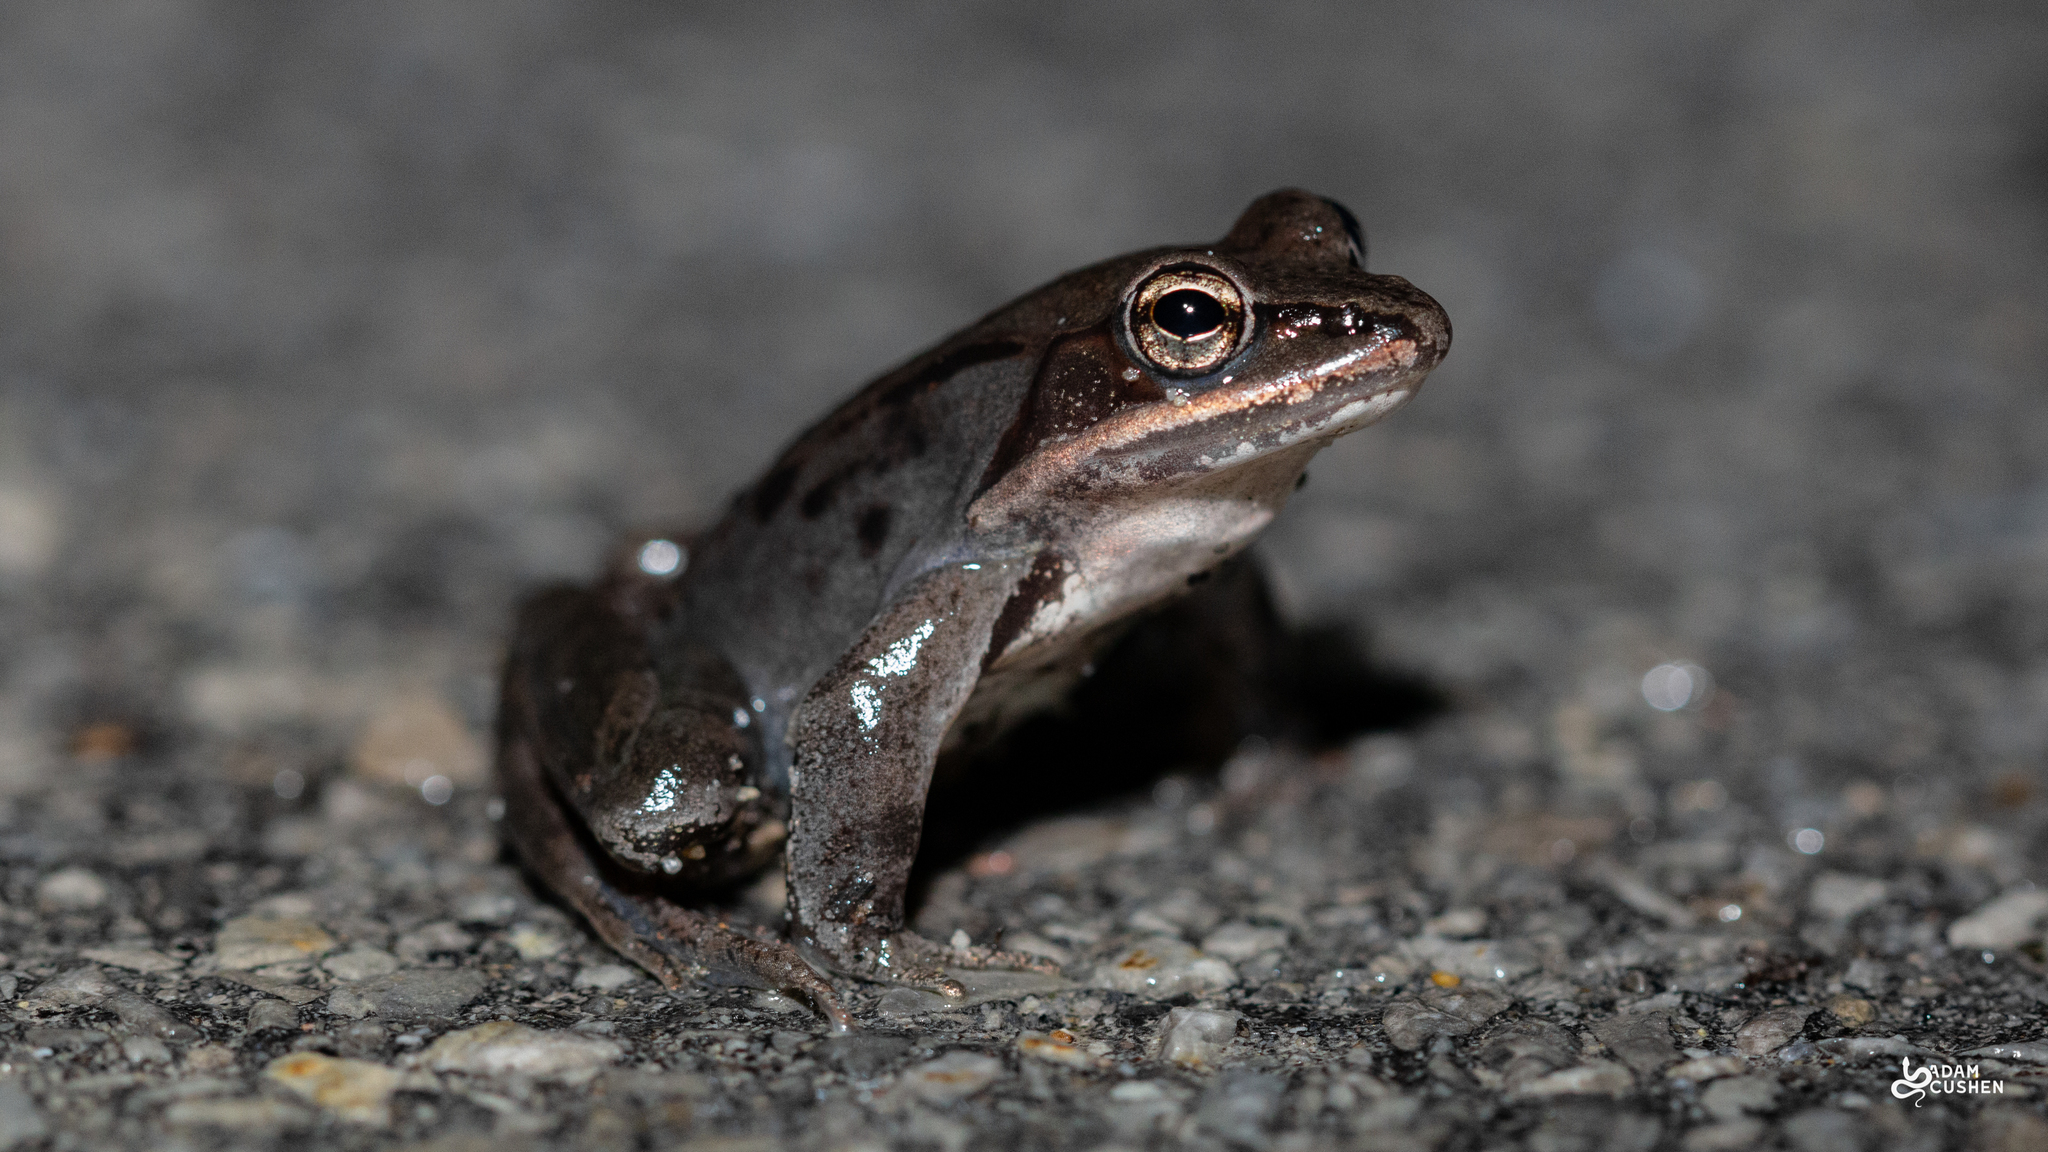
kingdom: Animalia
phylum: Chordata
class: Amphibia
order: Anura
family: Ranidae
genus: Lithobates
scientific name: Lithobates sylvaticus
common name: Wood frog
